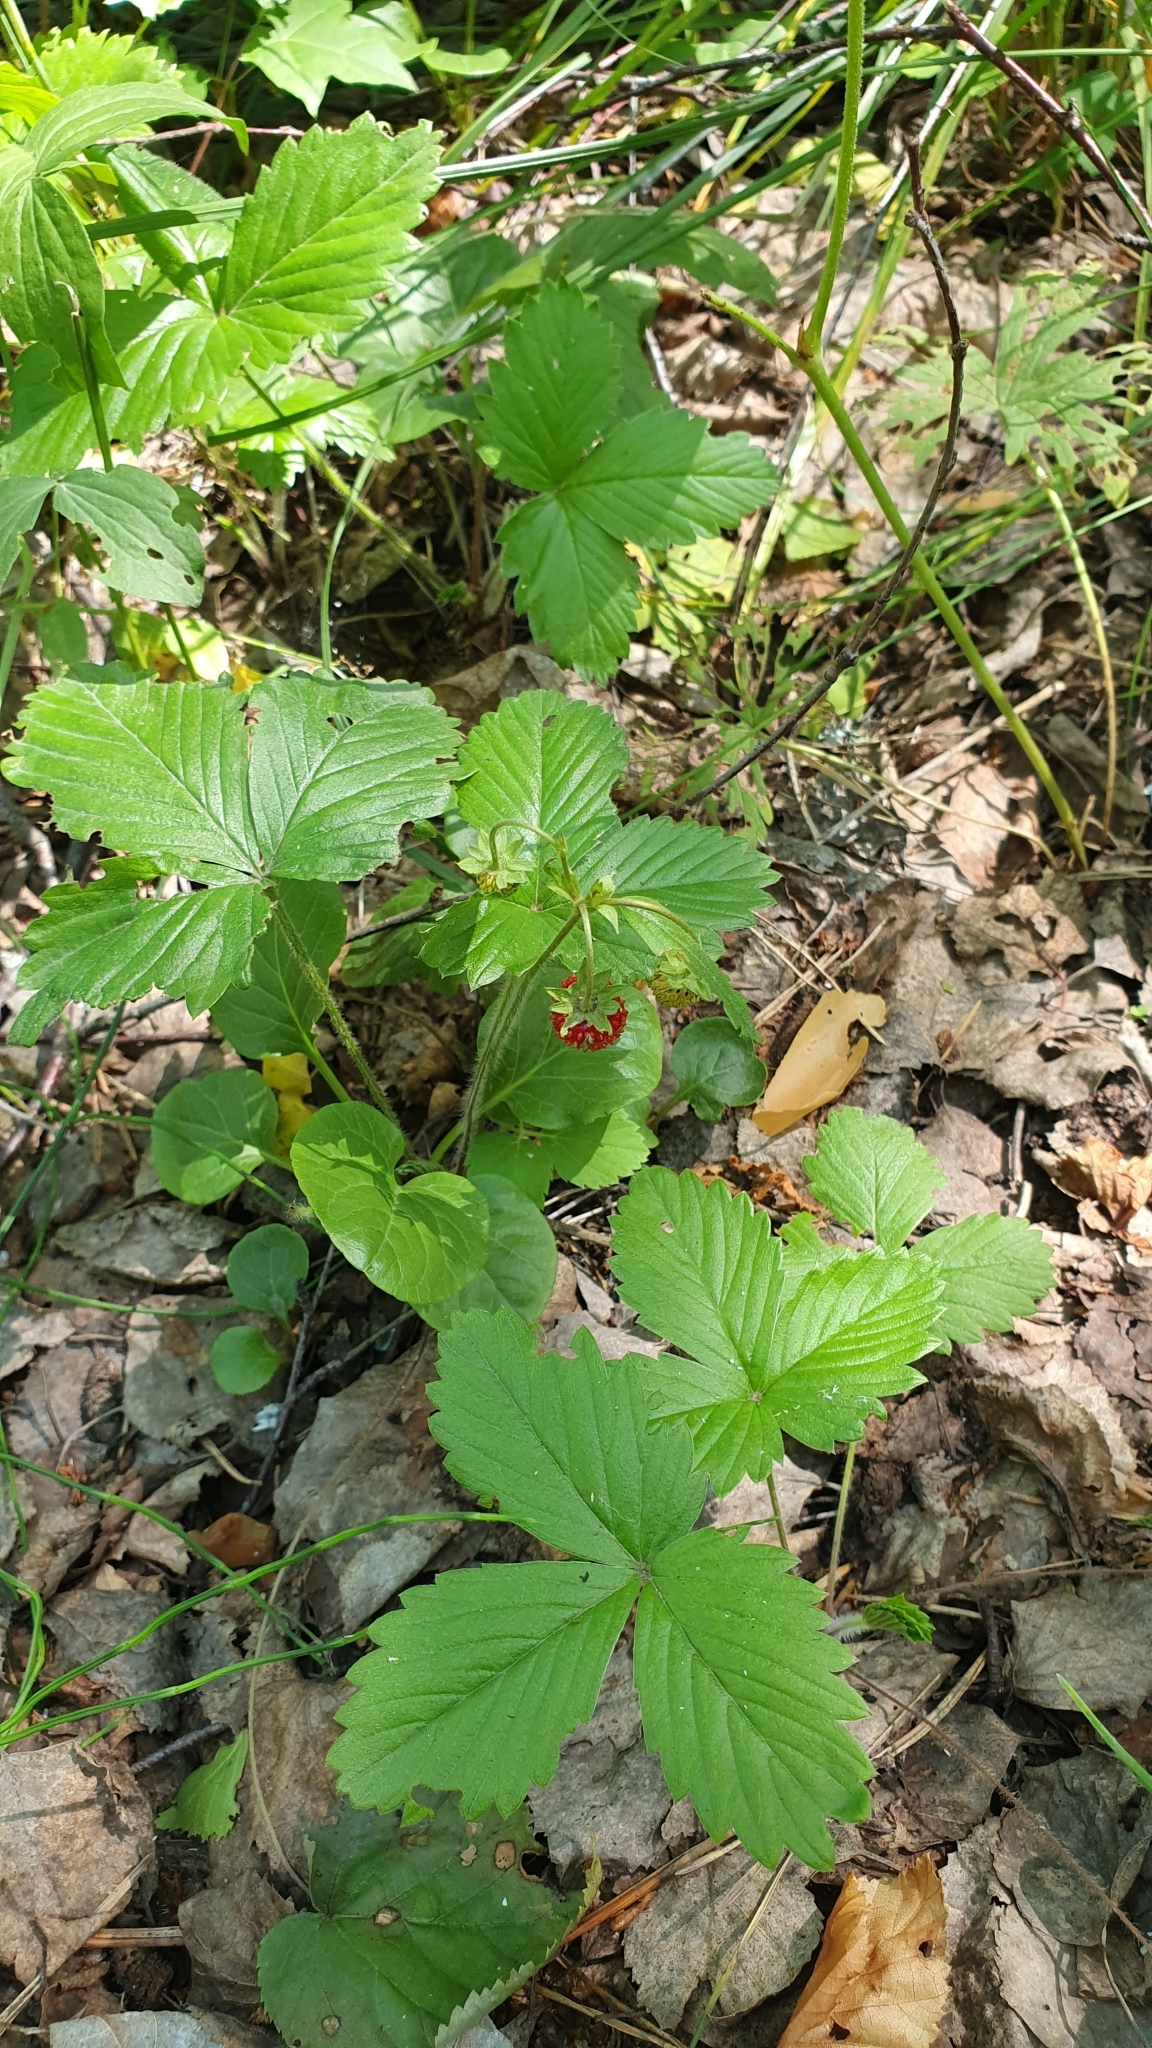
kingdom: Plantae
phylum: Tracheophyta
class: Magnoliopsida
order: Rosales
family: Rosaceae
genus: Fragaria
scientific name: Fragaria vesca
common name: Wild strawberry
